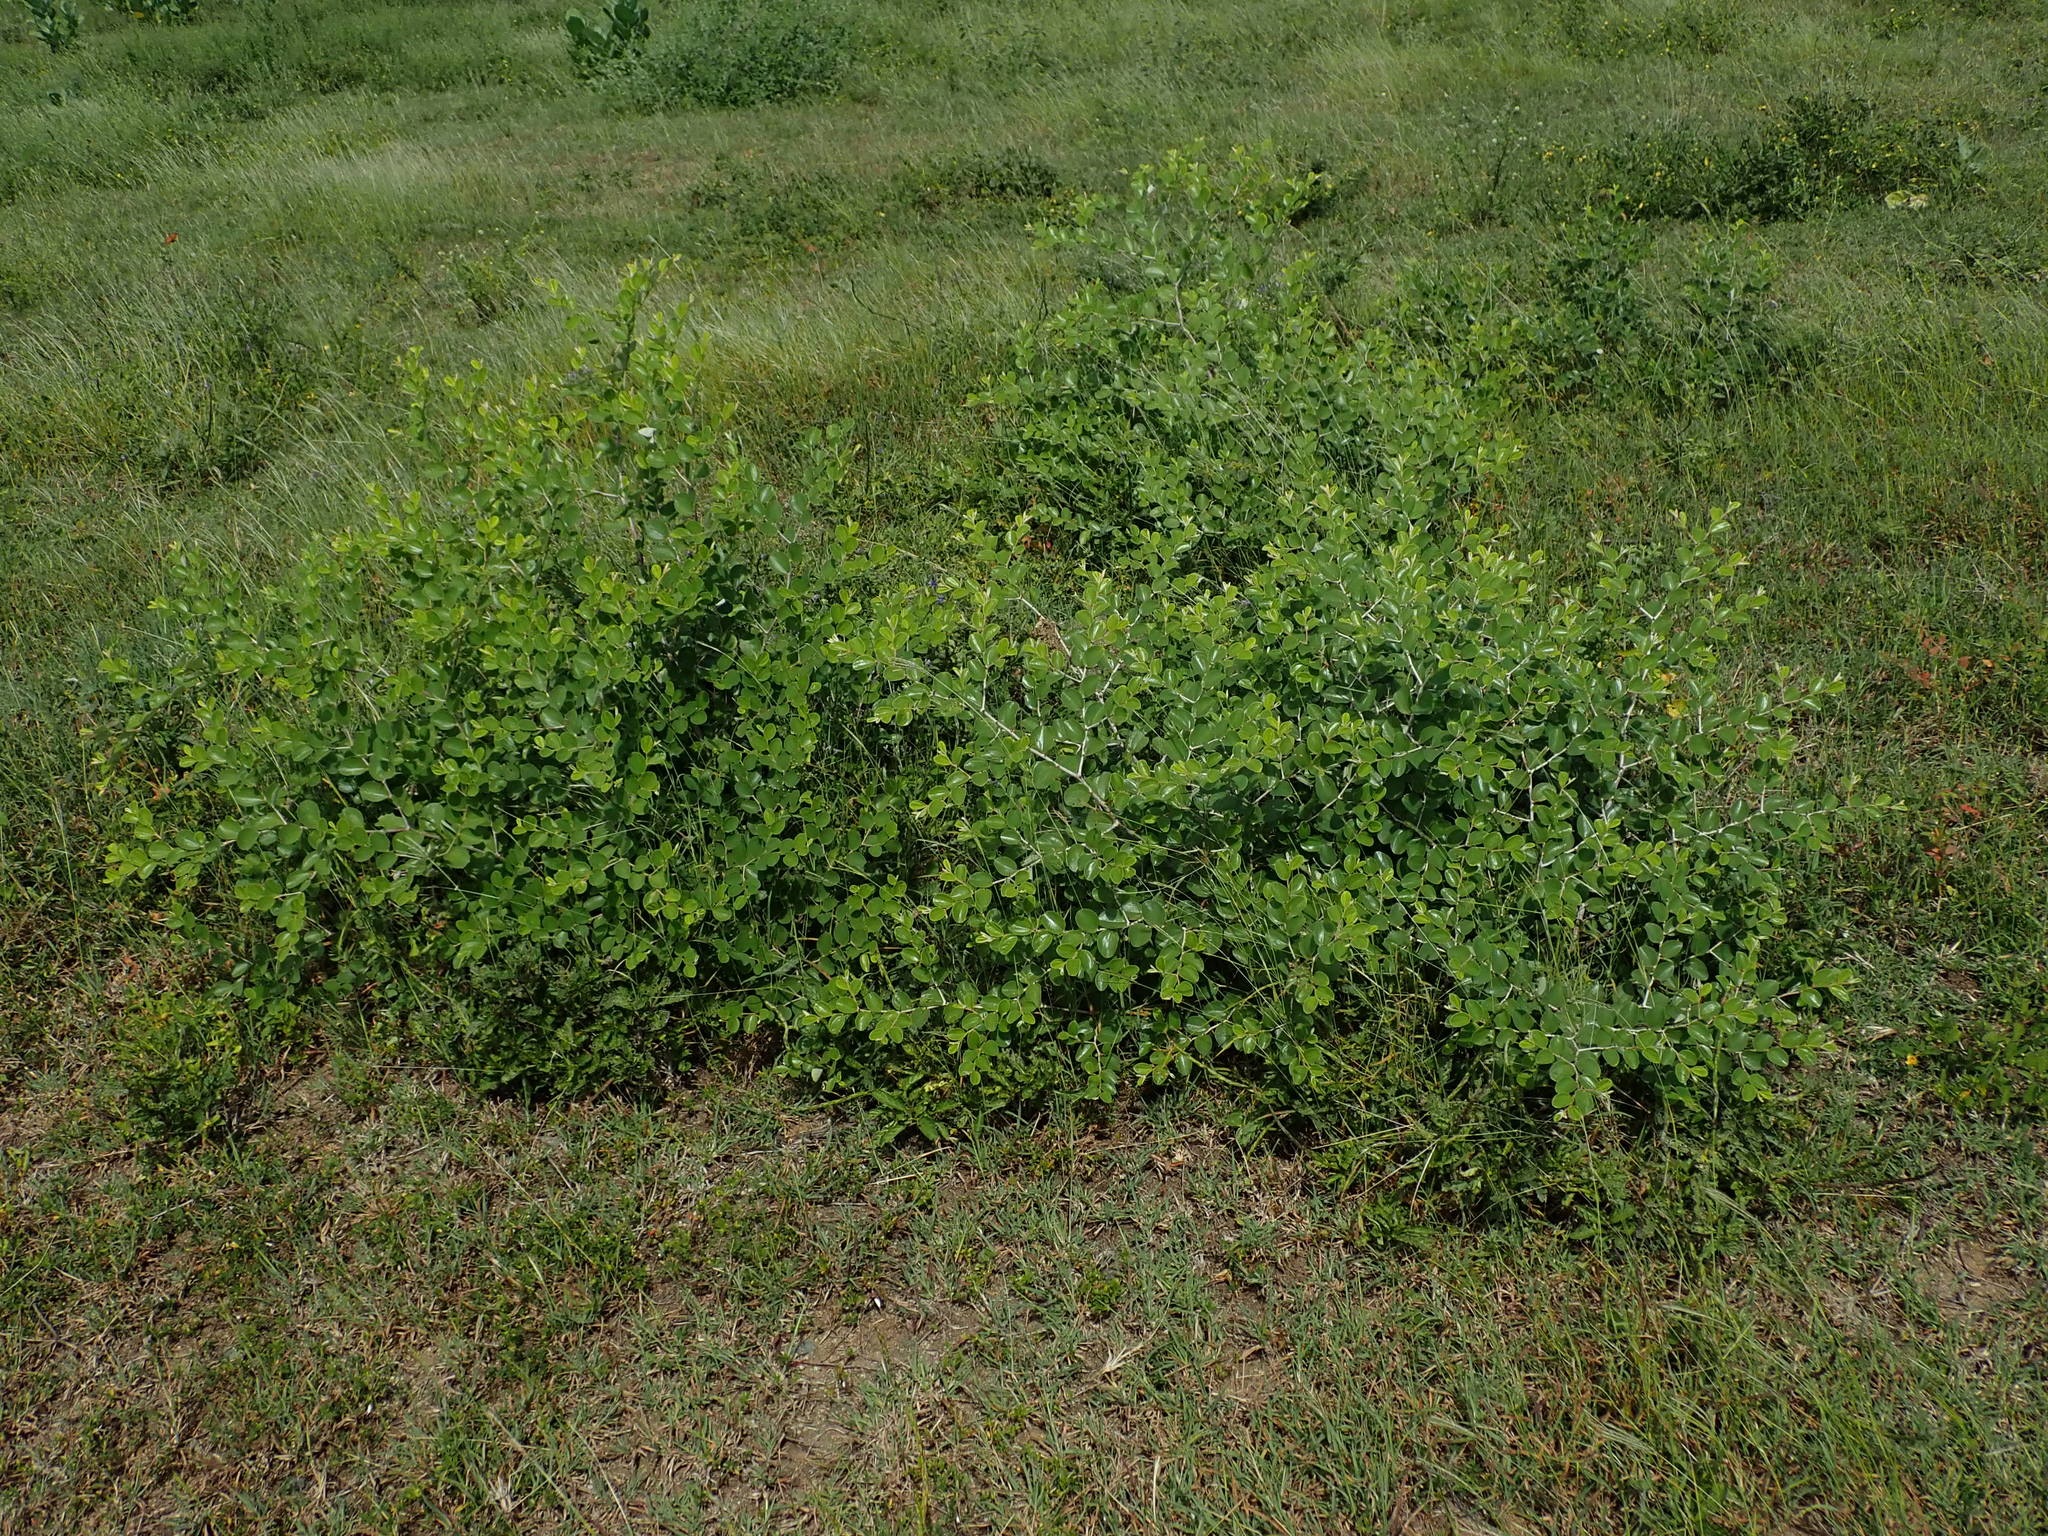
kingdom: Plantae
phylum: Tracheophyta
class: Magnoliopsida
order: Rosales
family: Rhamnaceae
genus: Ziziphus
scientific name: Ziziphus mauritiana
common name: Indian jujube
